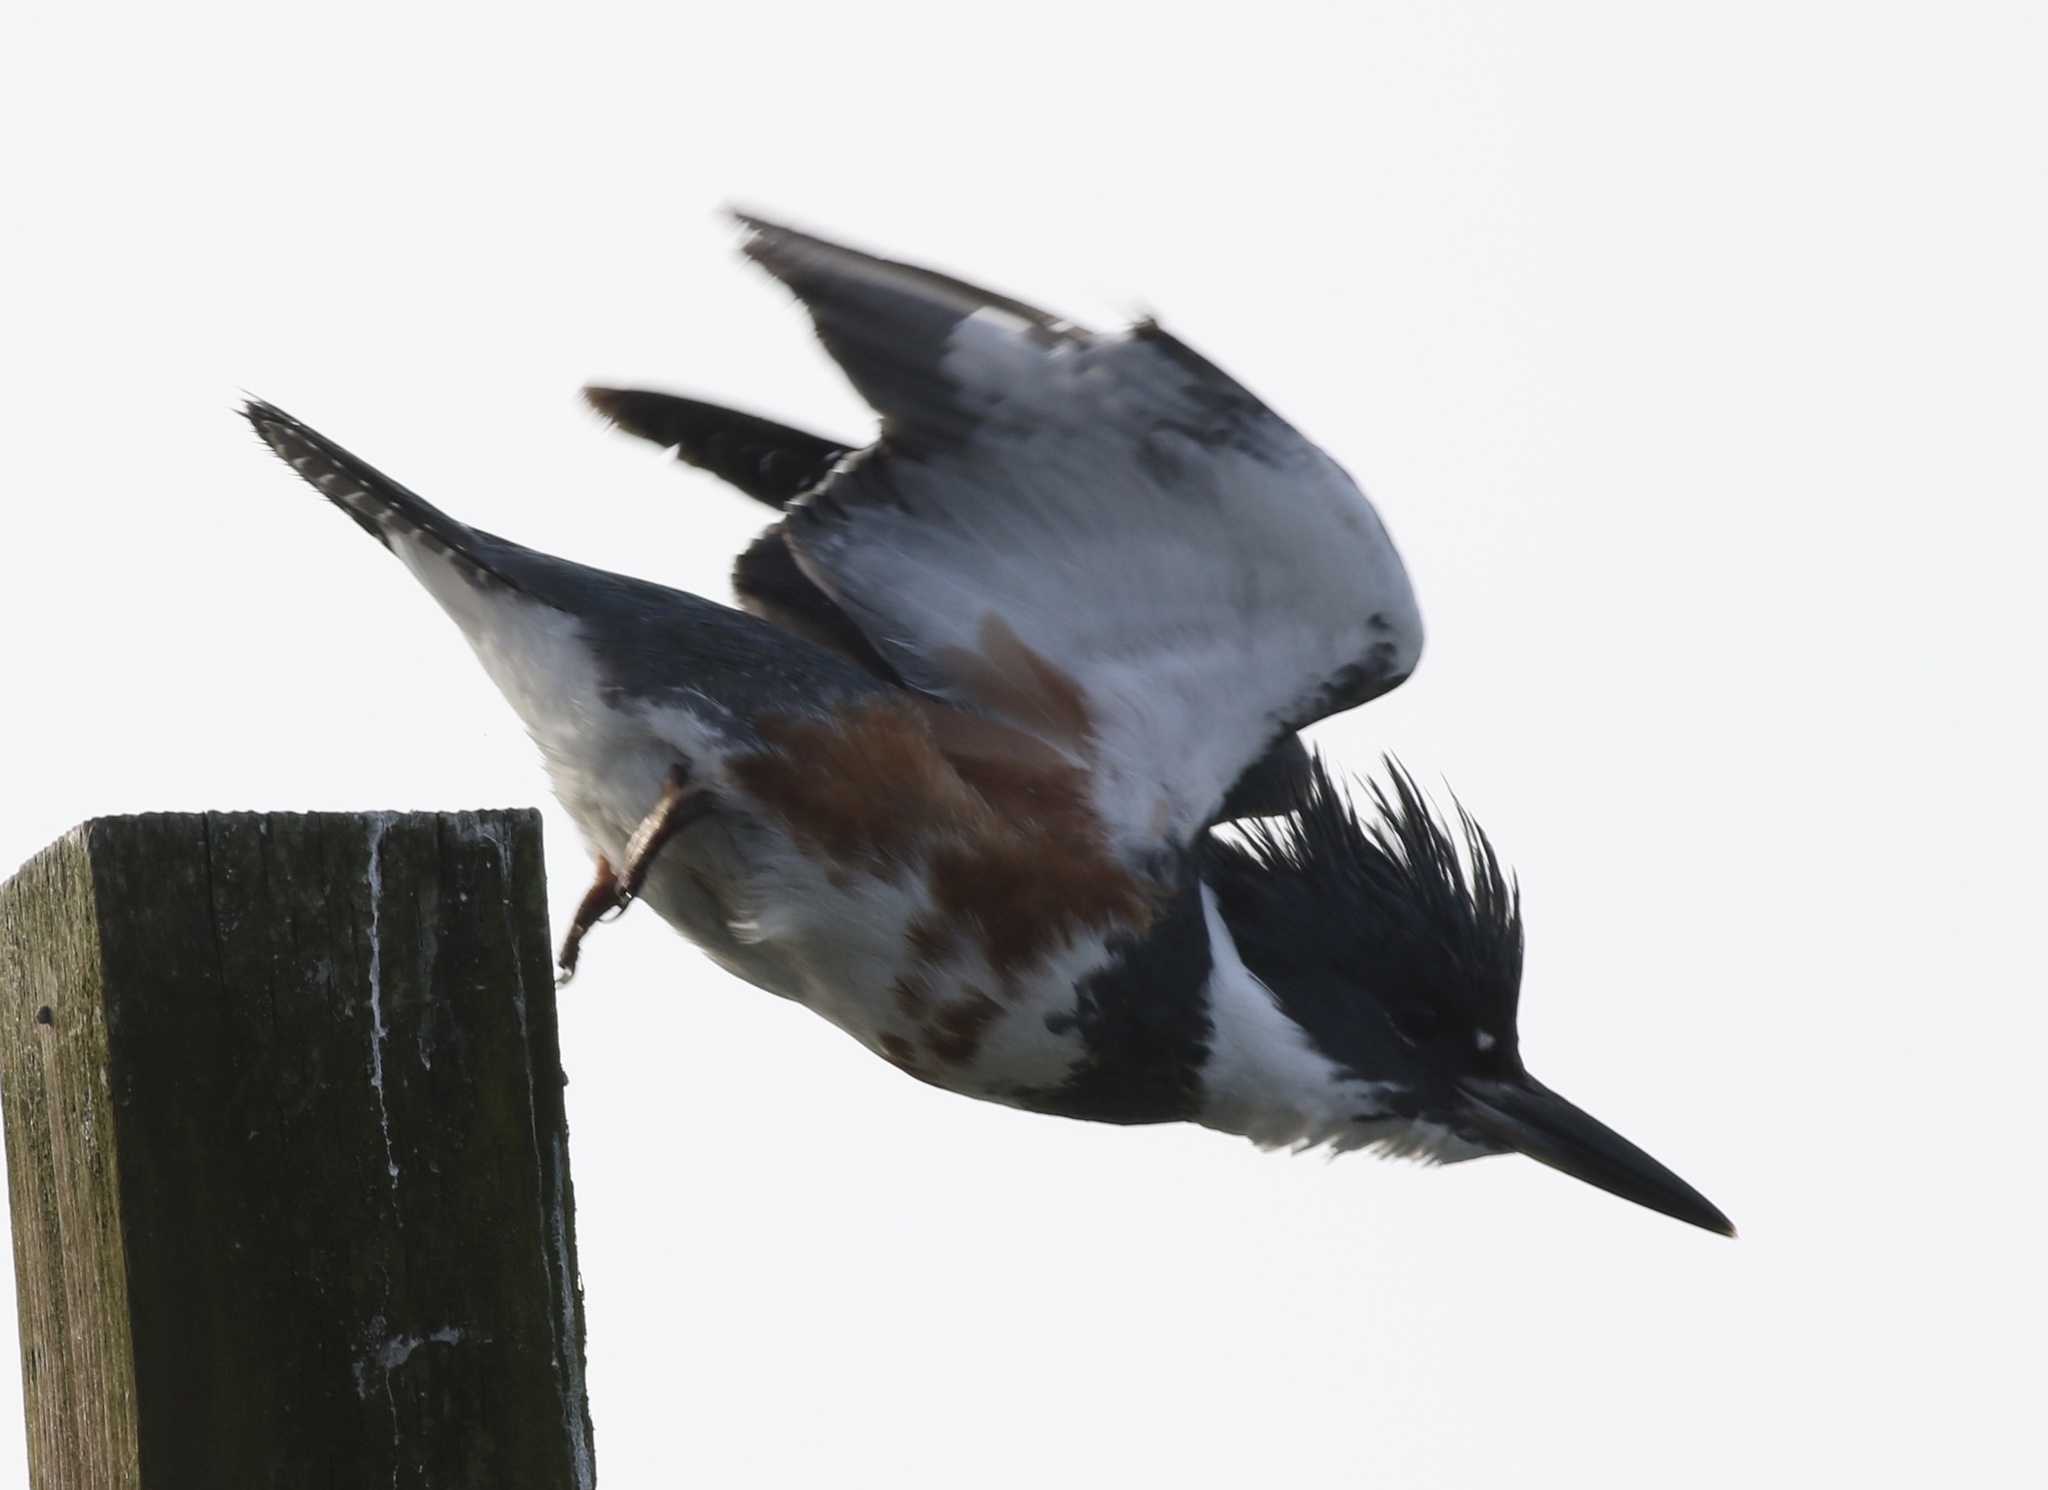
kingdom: Animalia
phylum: Chordata
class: Aves
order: Coraciiformes
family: Alcedinidae
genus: Megaceryle
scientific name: Megaceryle alcyon
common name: Belted kingfisher
